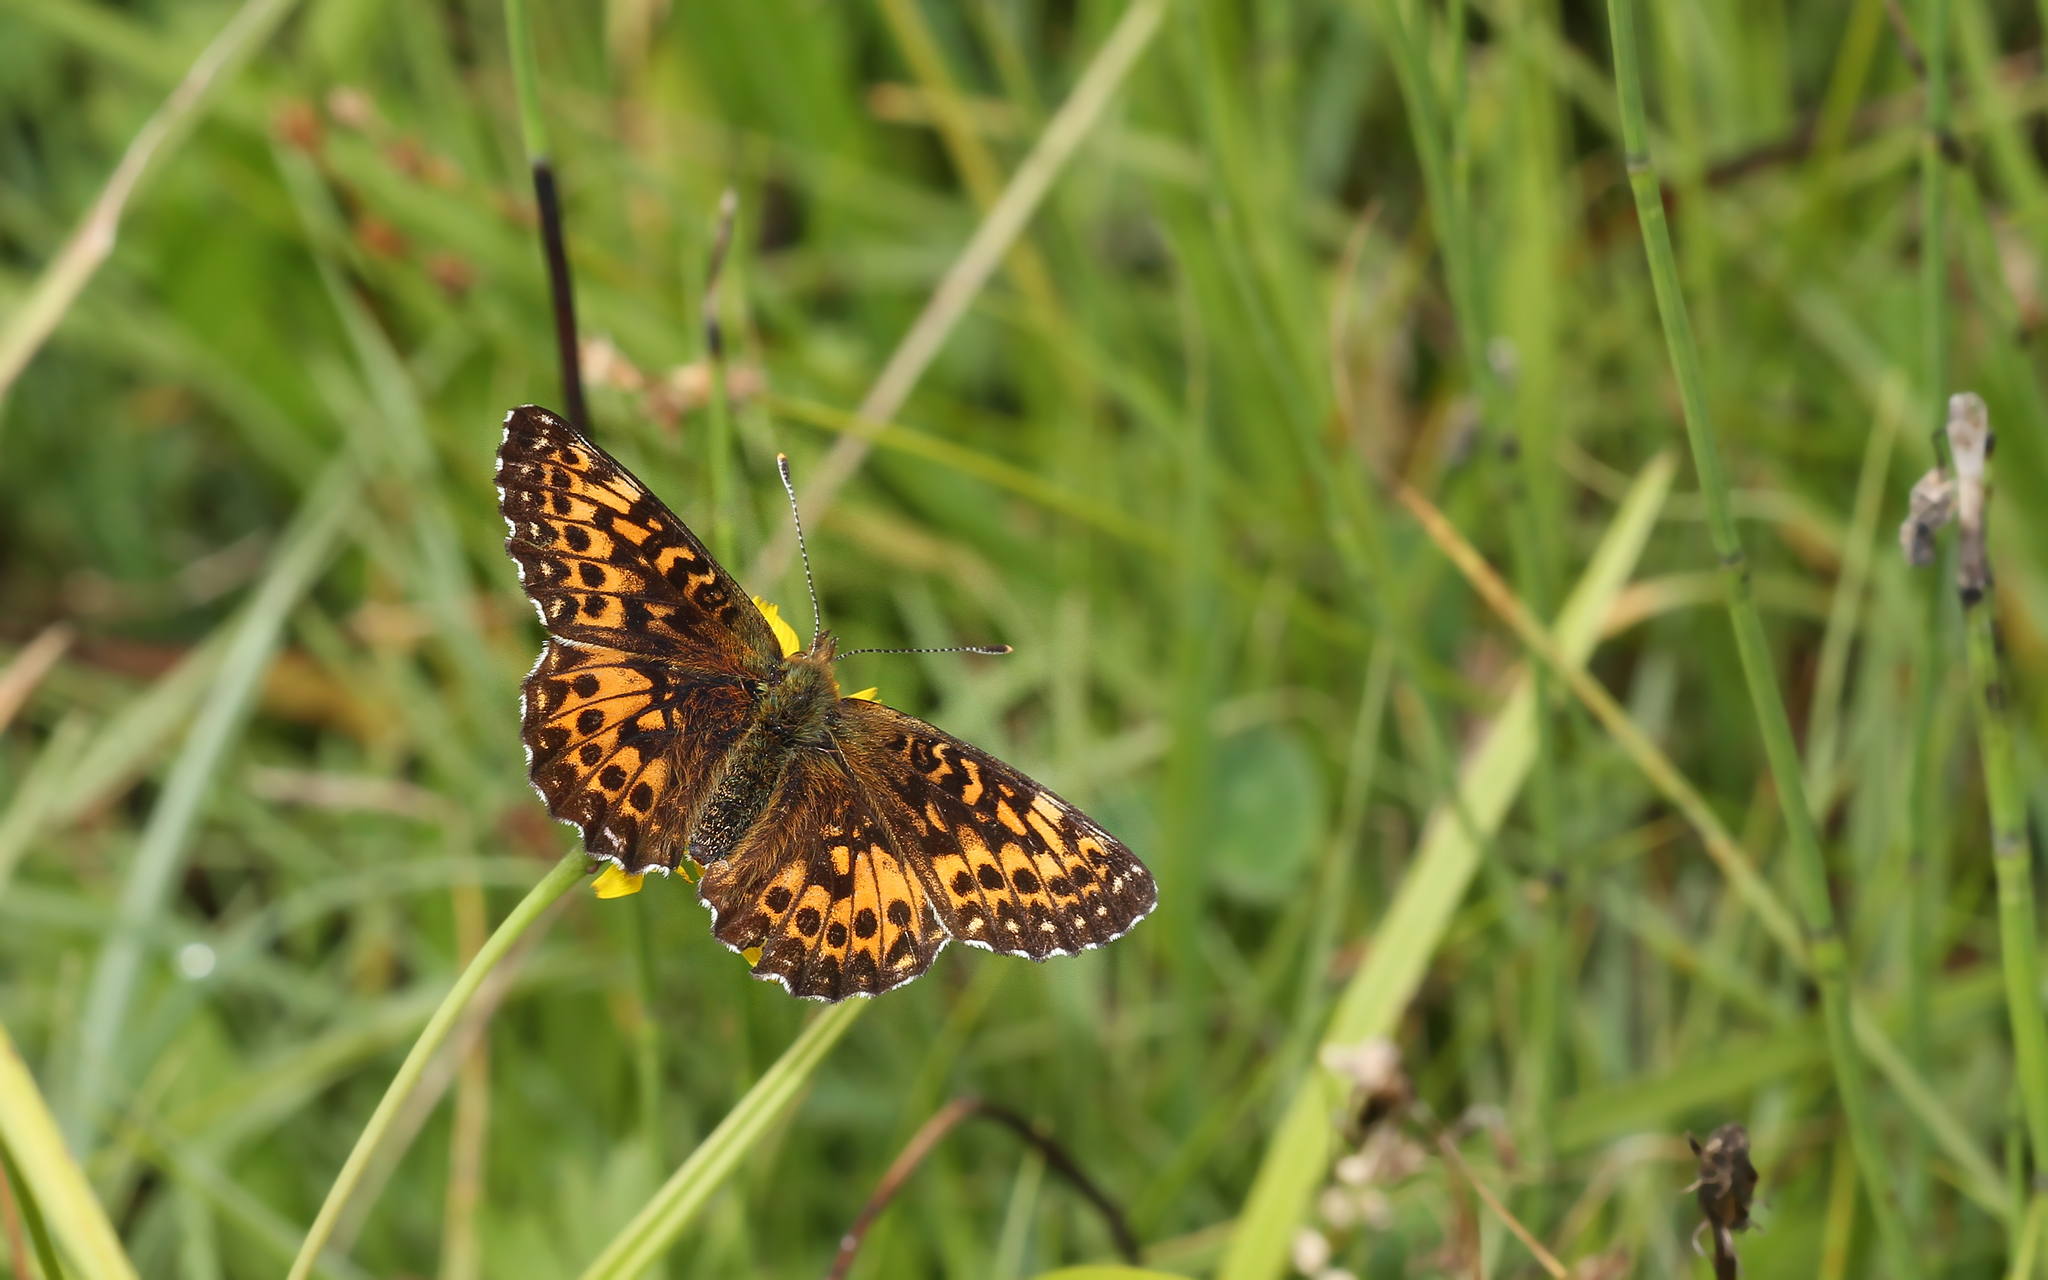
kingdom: Animalia
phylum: Arthropoda
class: Insecta
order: Lepidoptera
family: Nymphalidae
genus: Boloria
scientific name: Boloria titania
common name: Titania's fritillary
